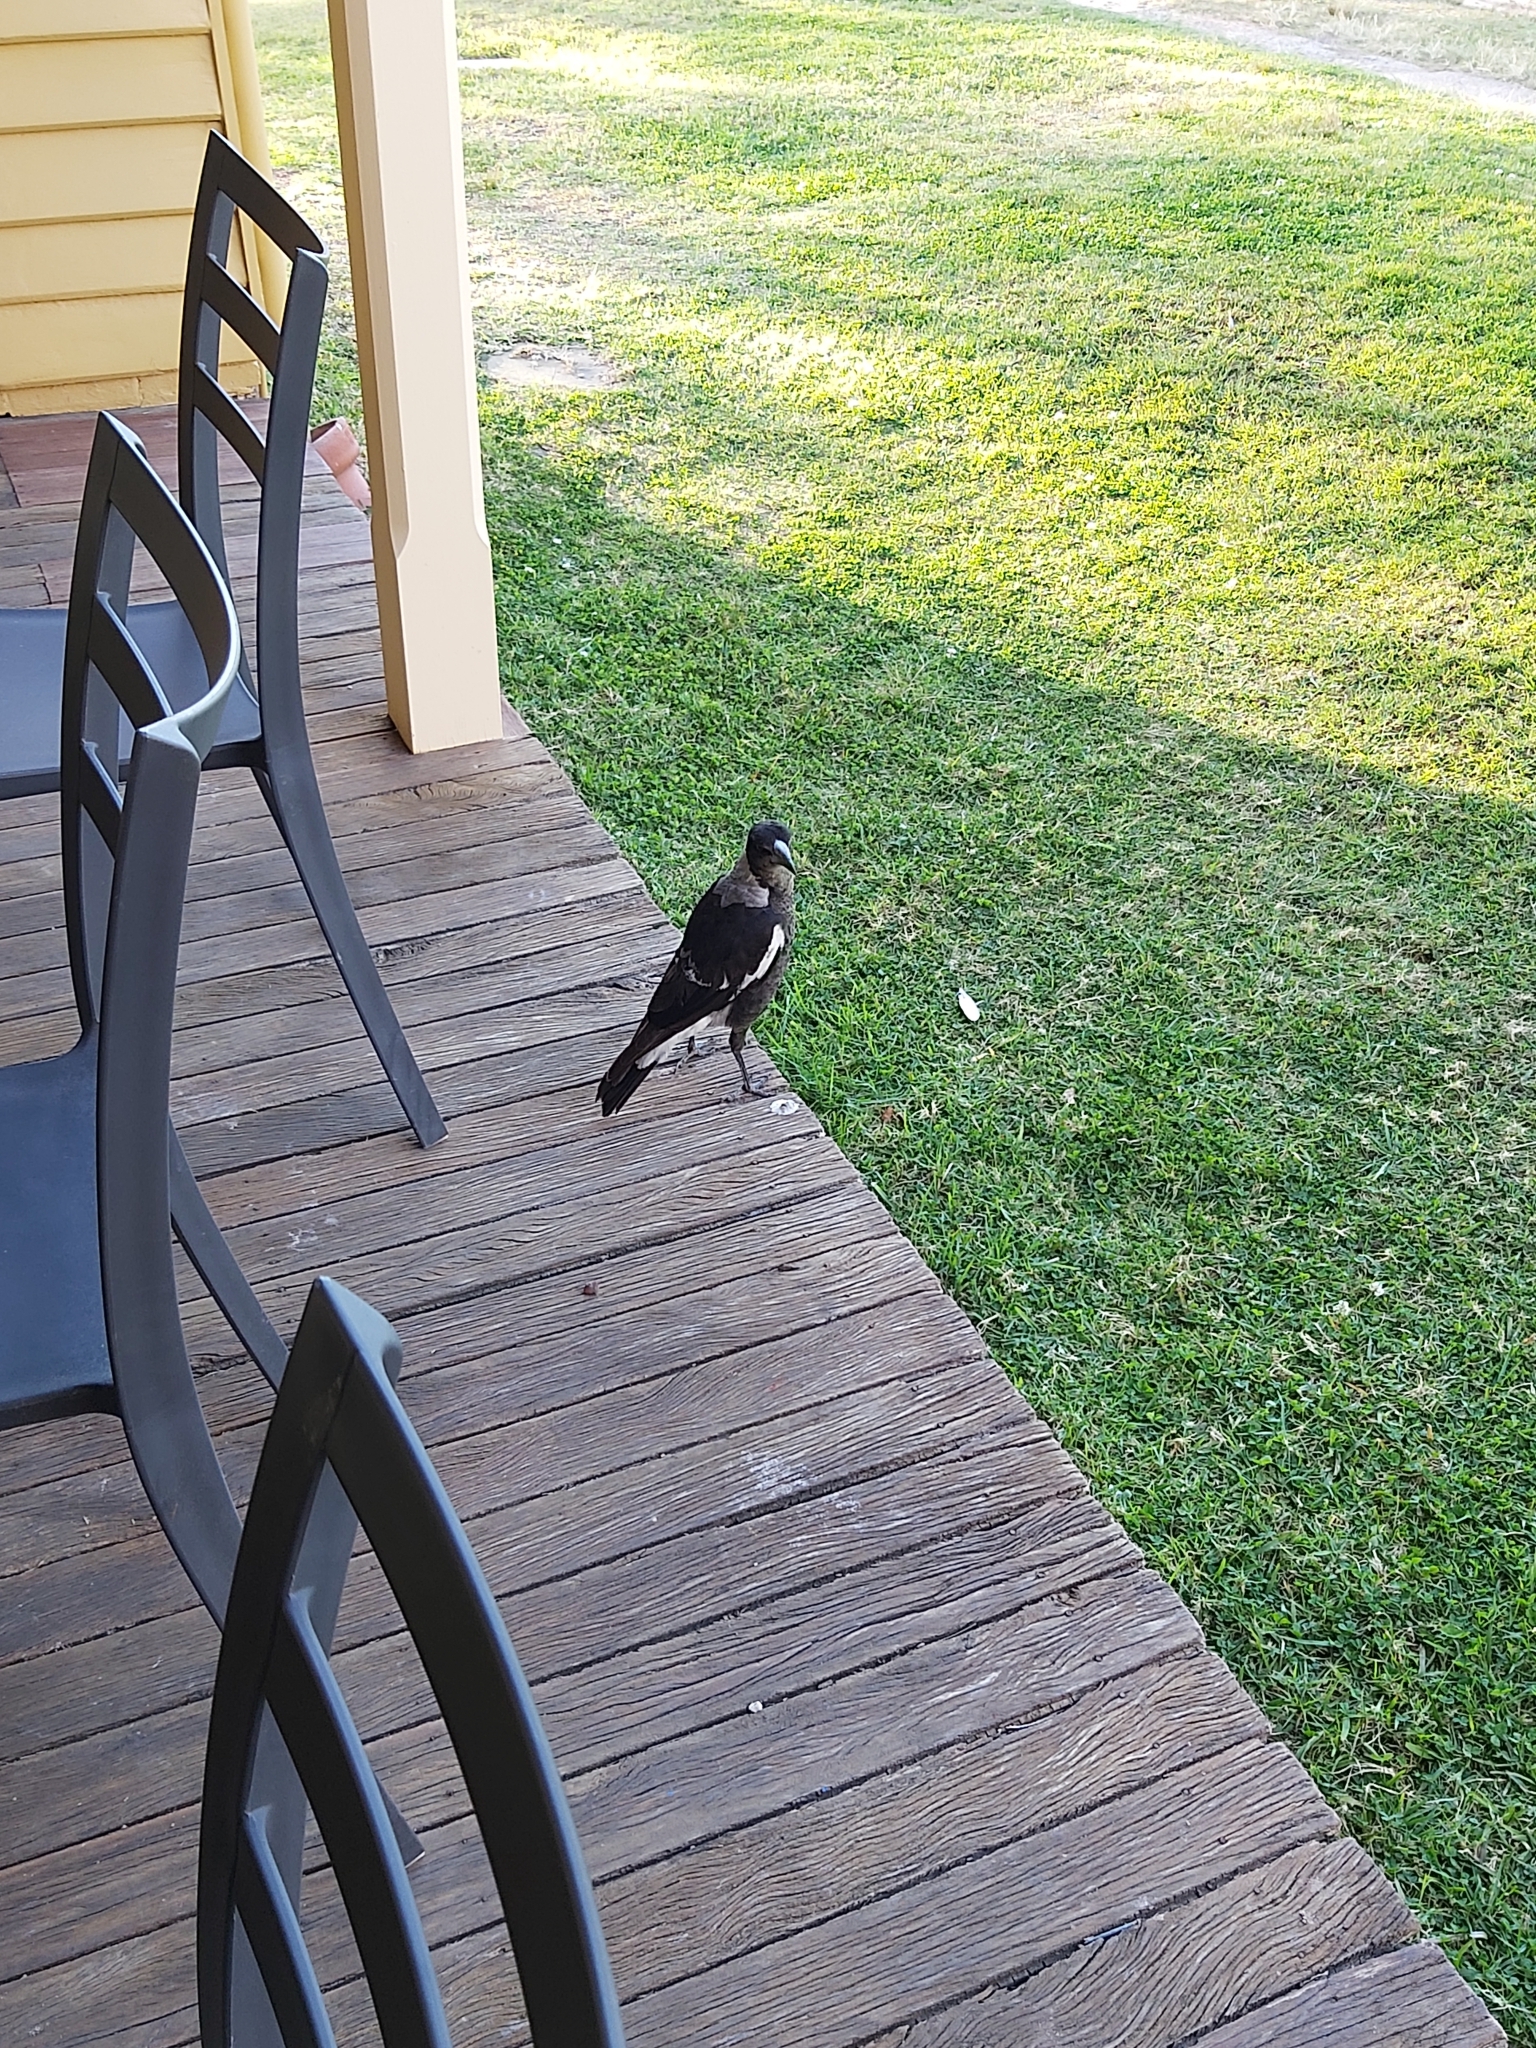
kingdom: Animalia
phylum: Chordata
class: Aves
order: Passeriformes
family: Cracticidae
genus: Gymnorhina
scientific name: Gymnorhina tibicen
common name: Australian magpie
